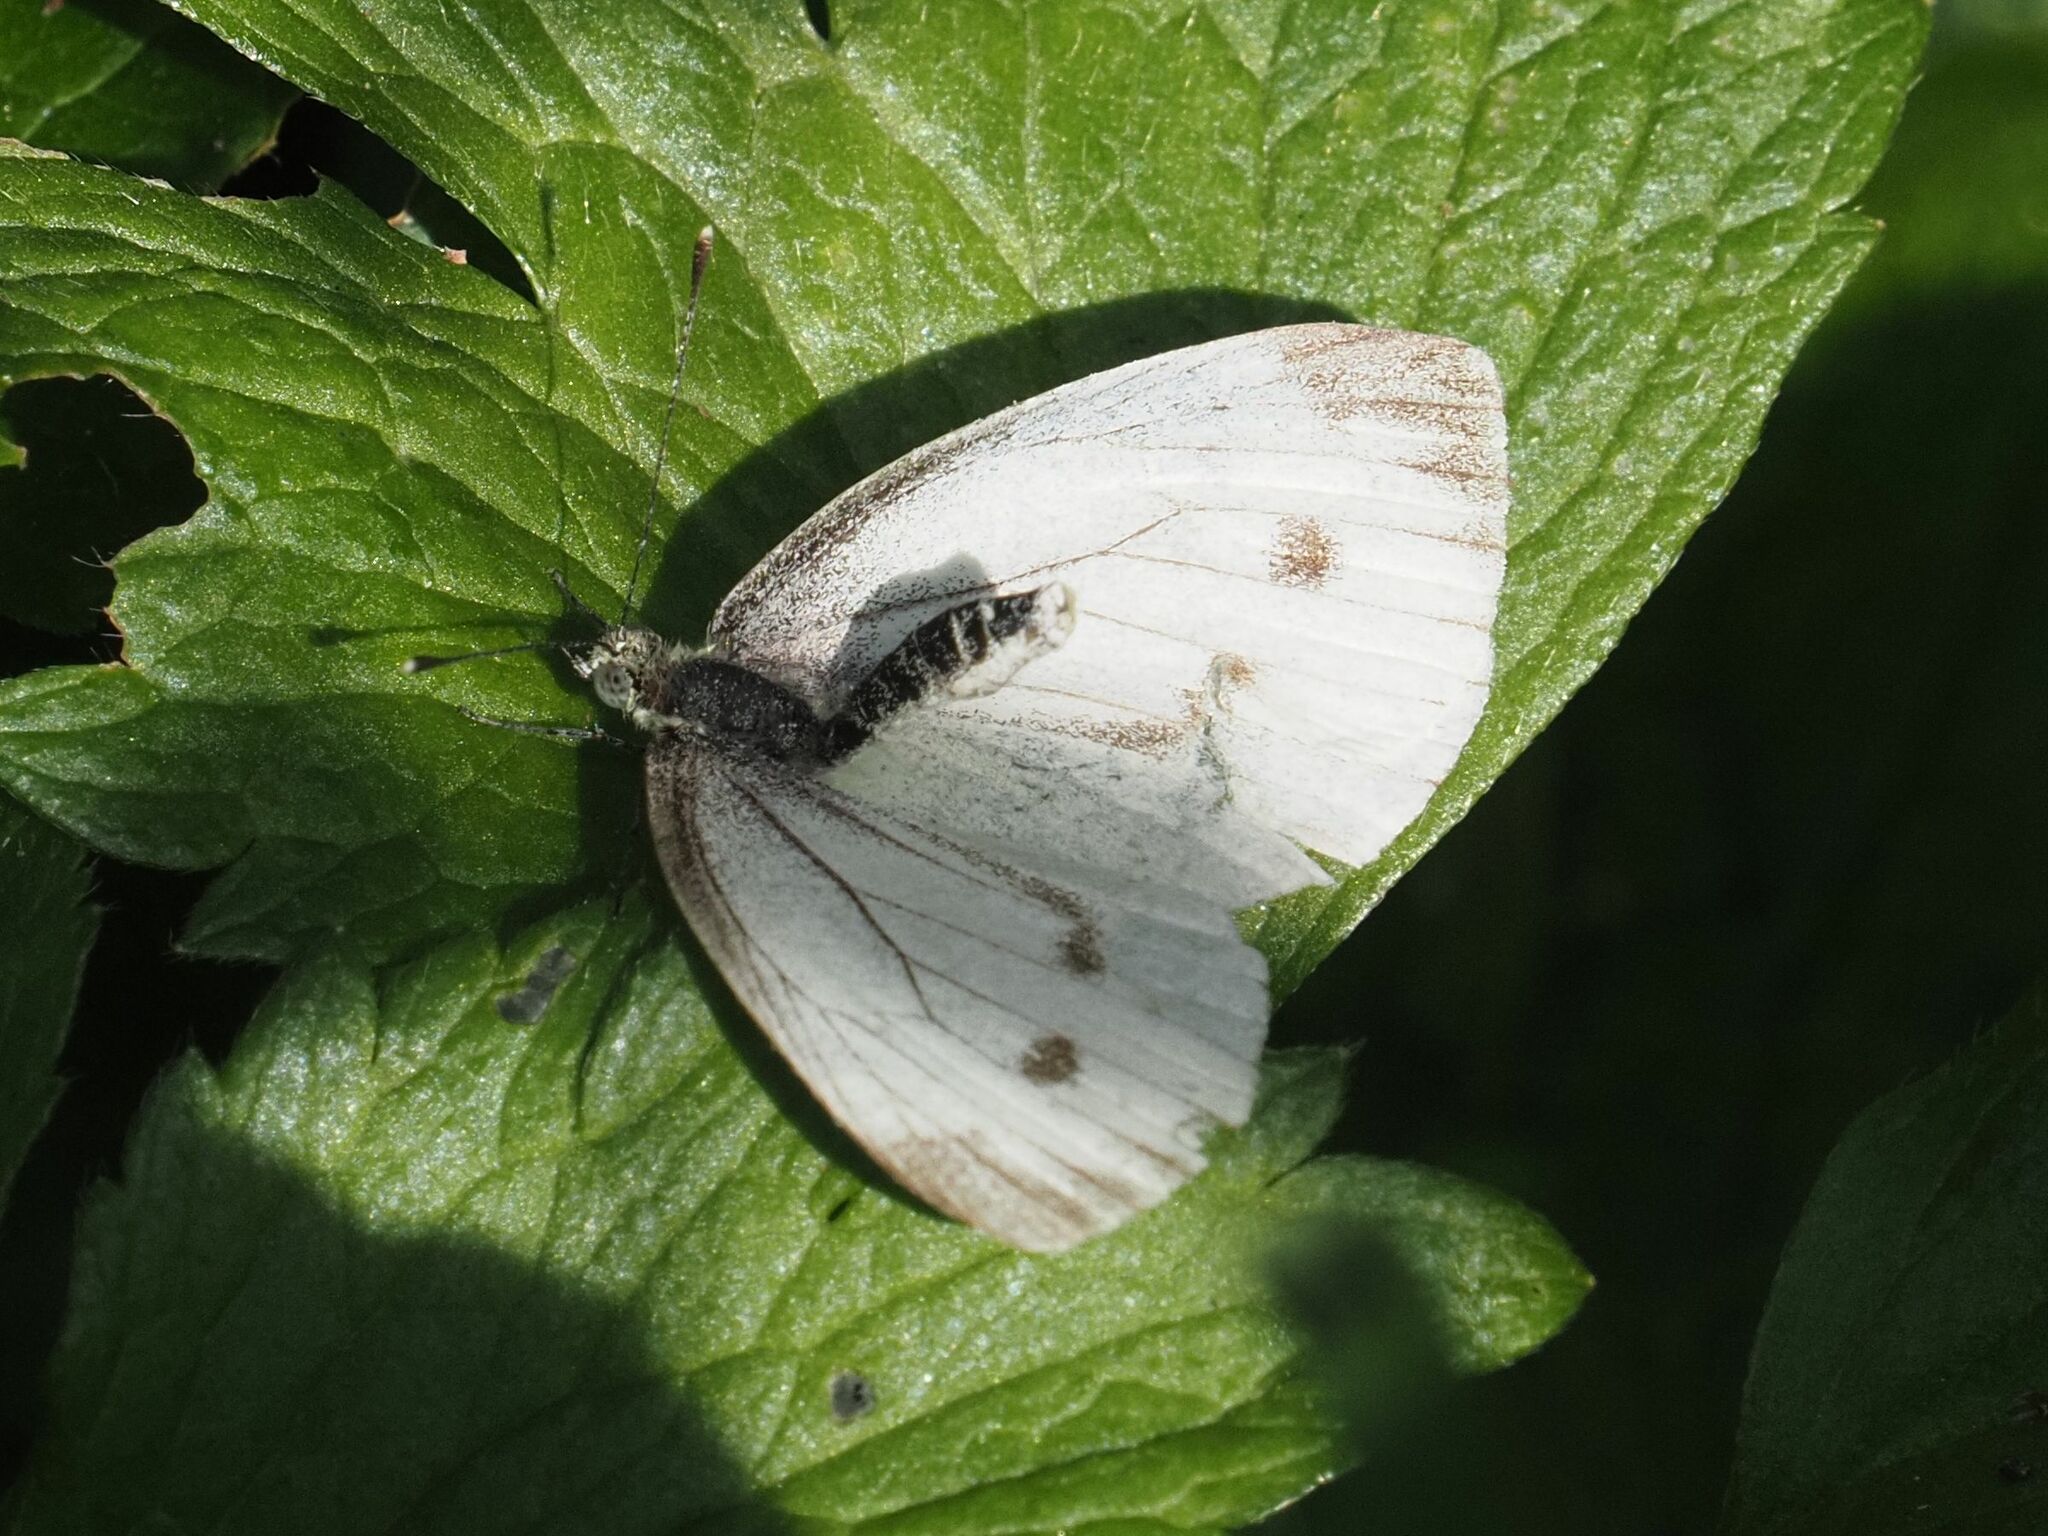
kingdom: Animalia
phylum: Arthropoda
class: Insecta
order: Lepidoptera
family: Pieridae
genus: Pieris
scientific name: Pieris napi
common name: Green-veined white
